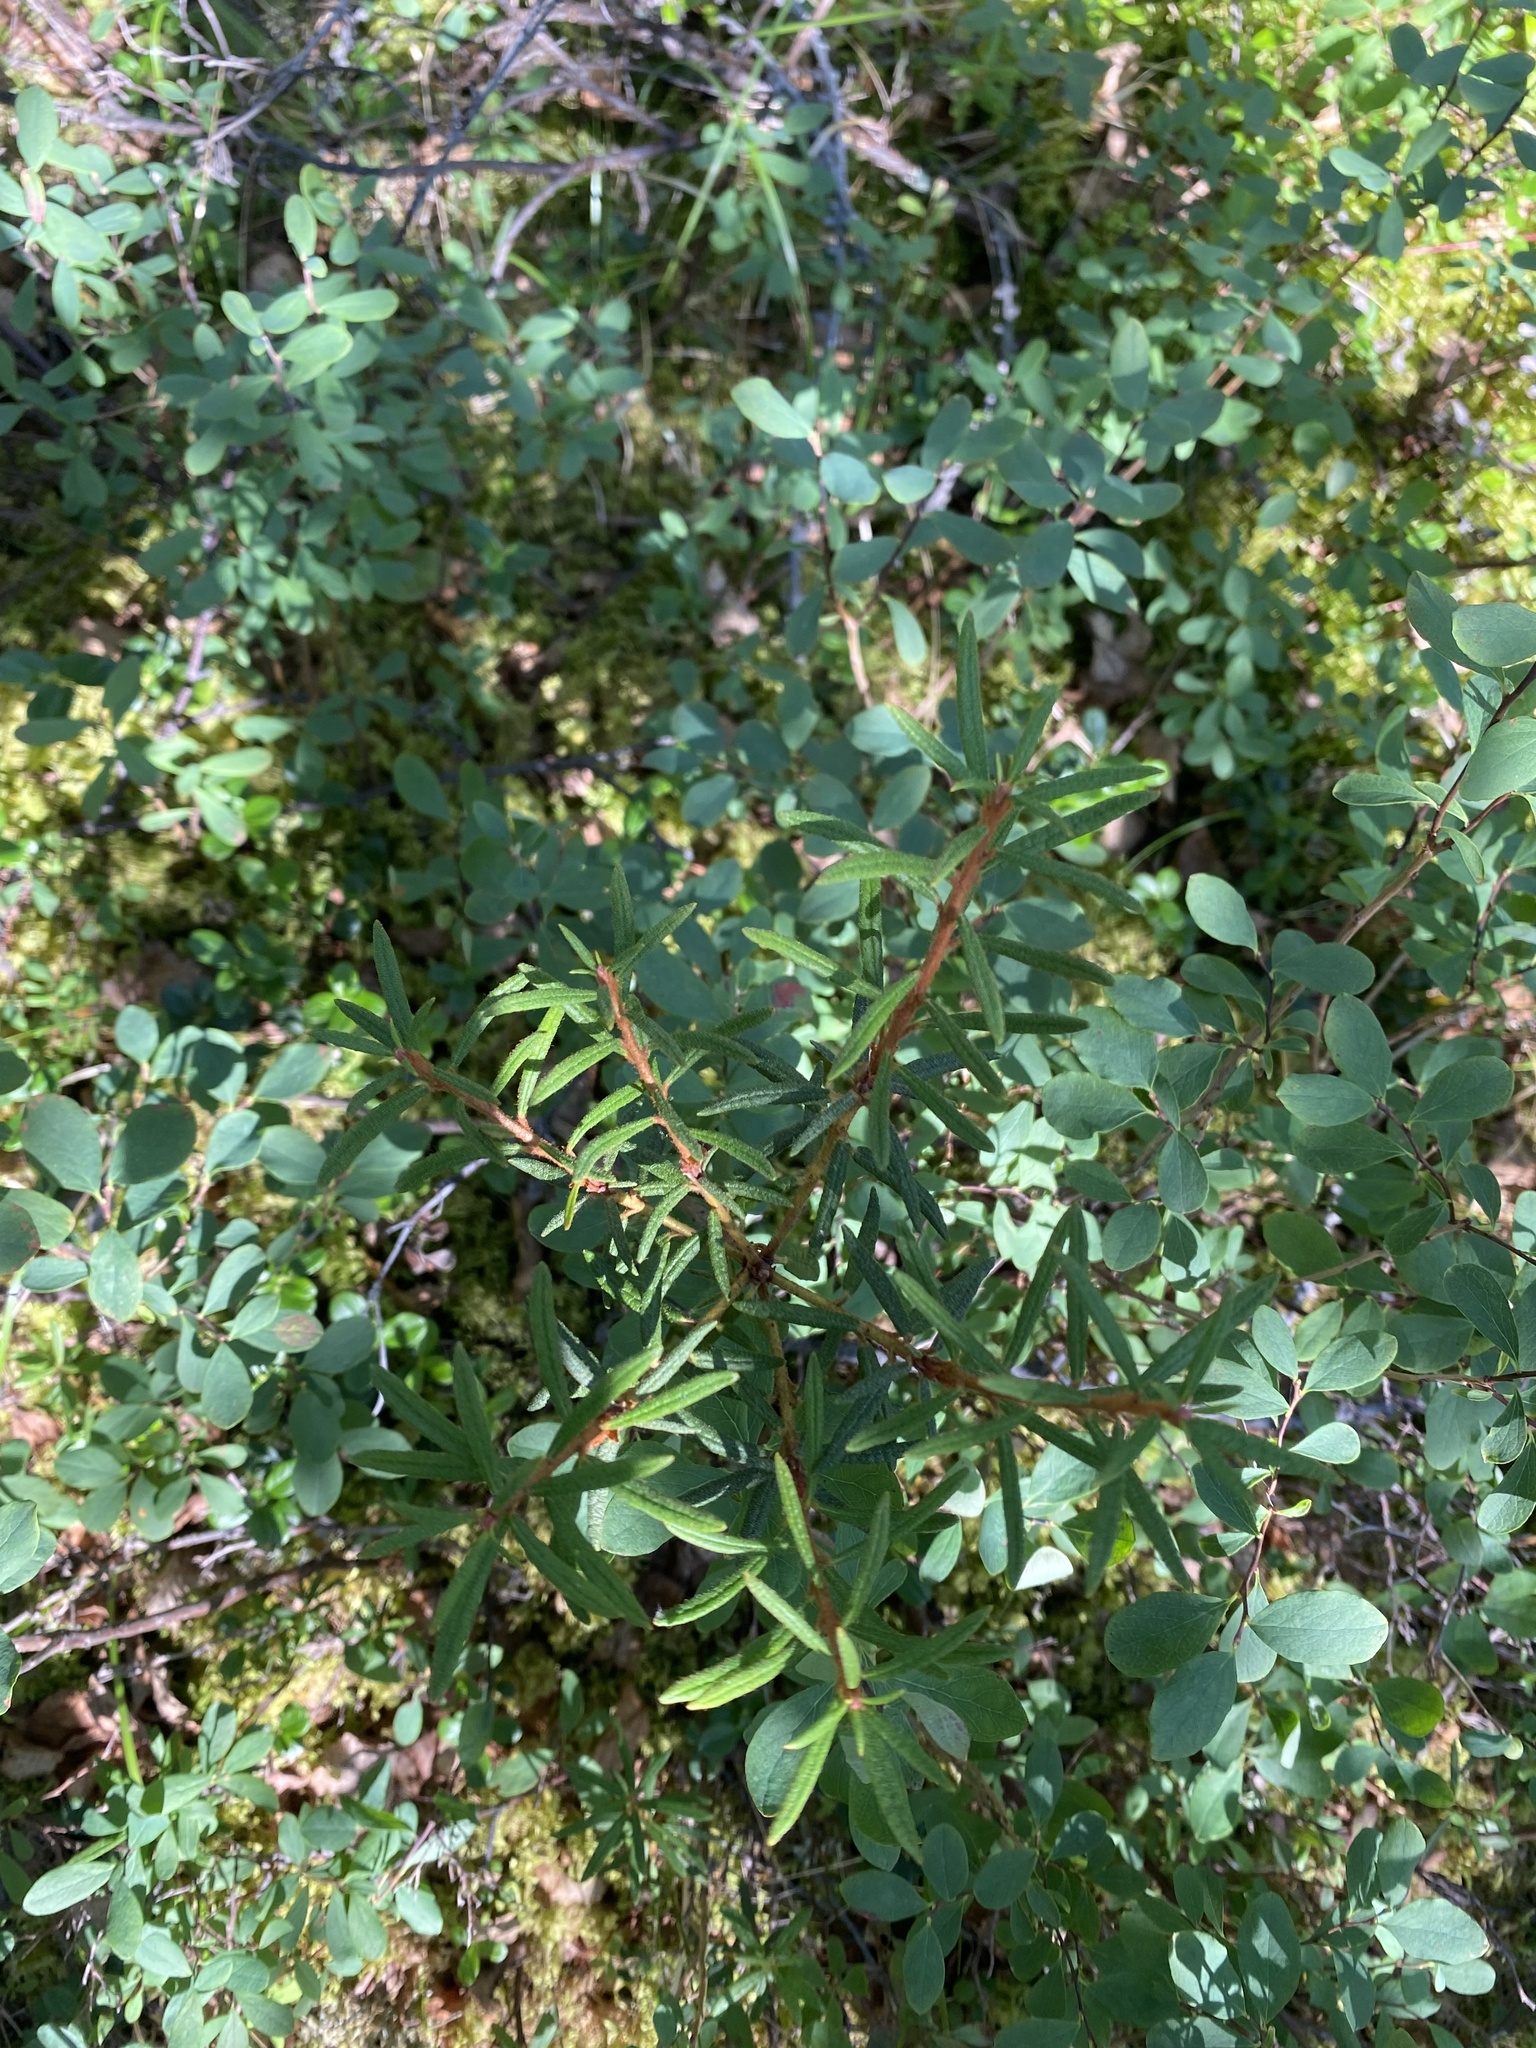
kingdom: Plantae
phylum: Tracheophyta
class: Magnoliopsida
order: Ericales
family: Ericaceae
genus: Rhododendron
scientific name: Rhododendron tomentosum
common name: Marsh labrador tea
